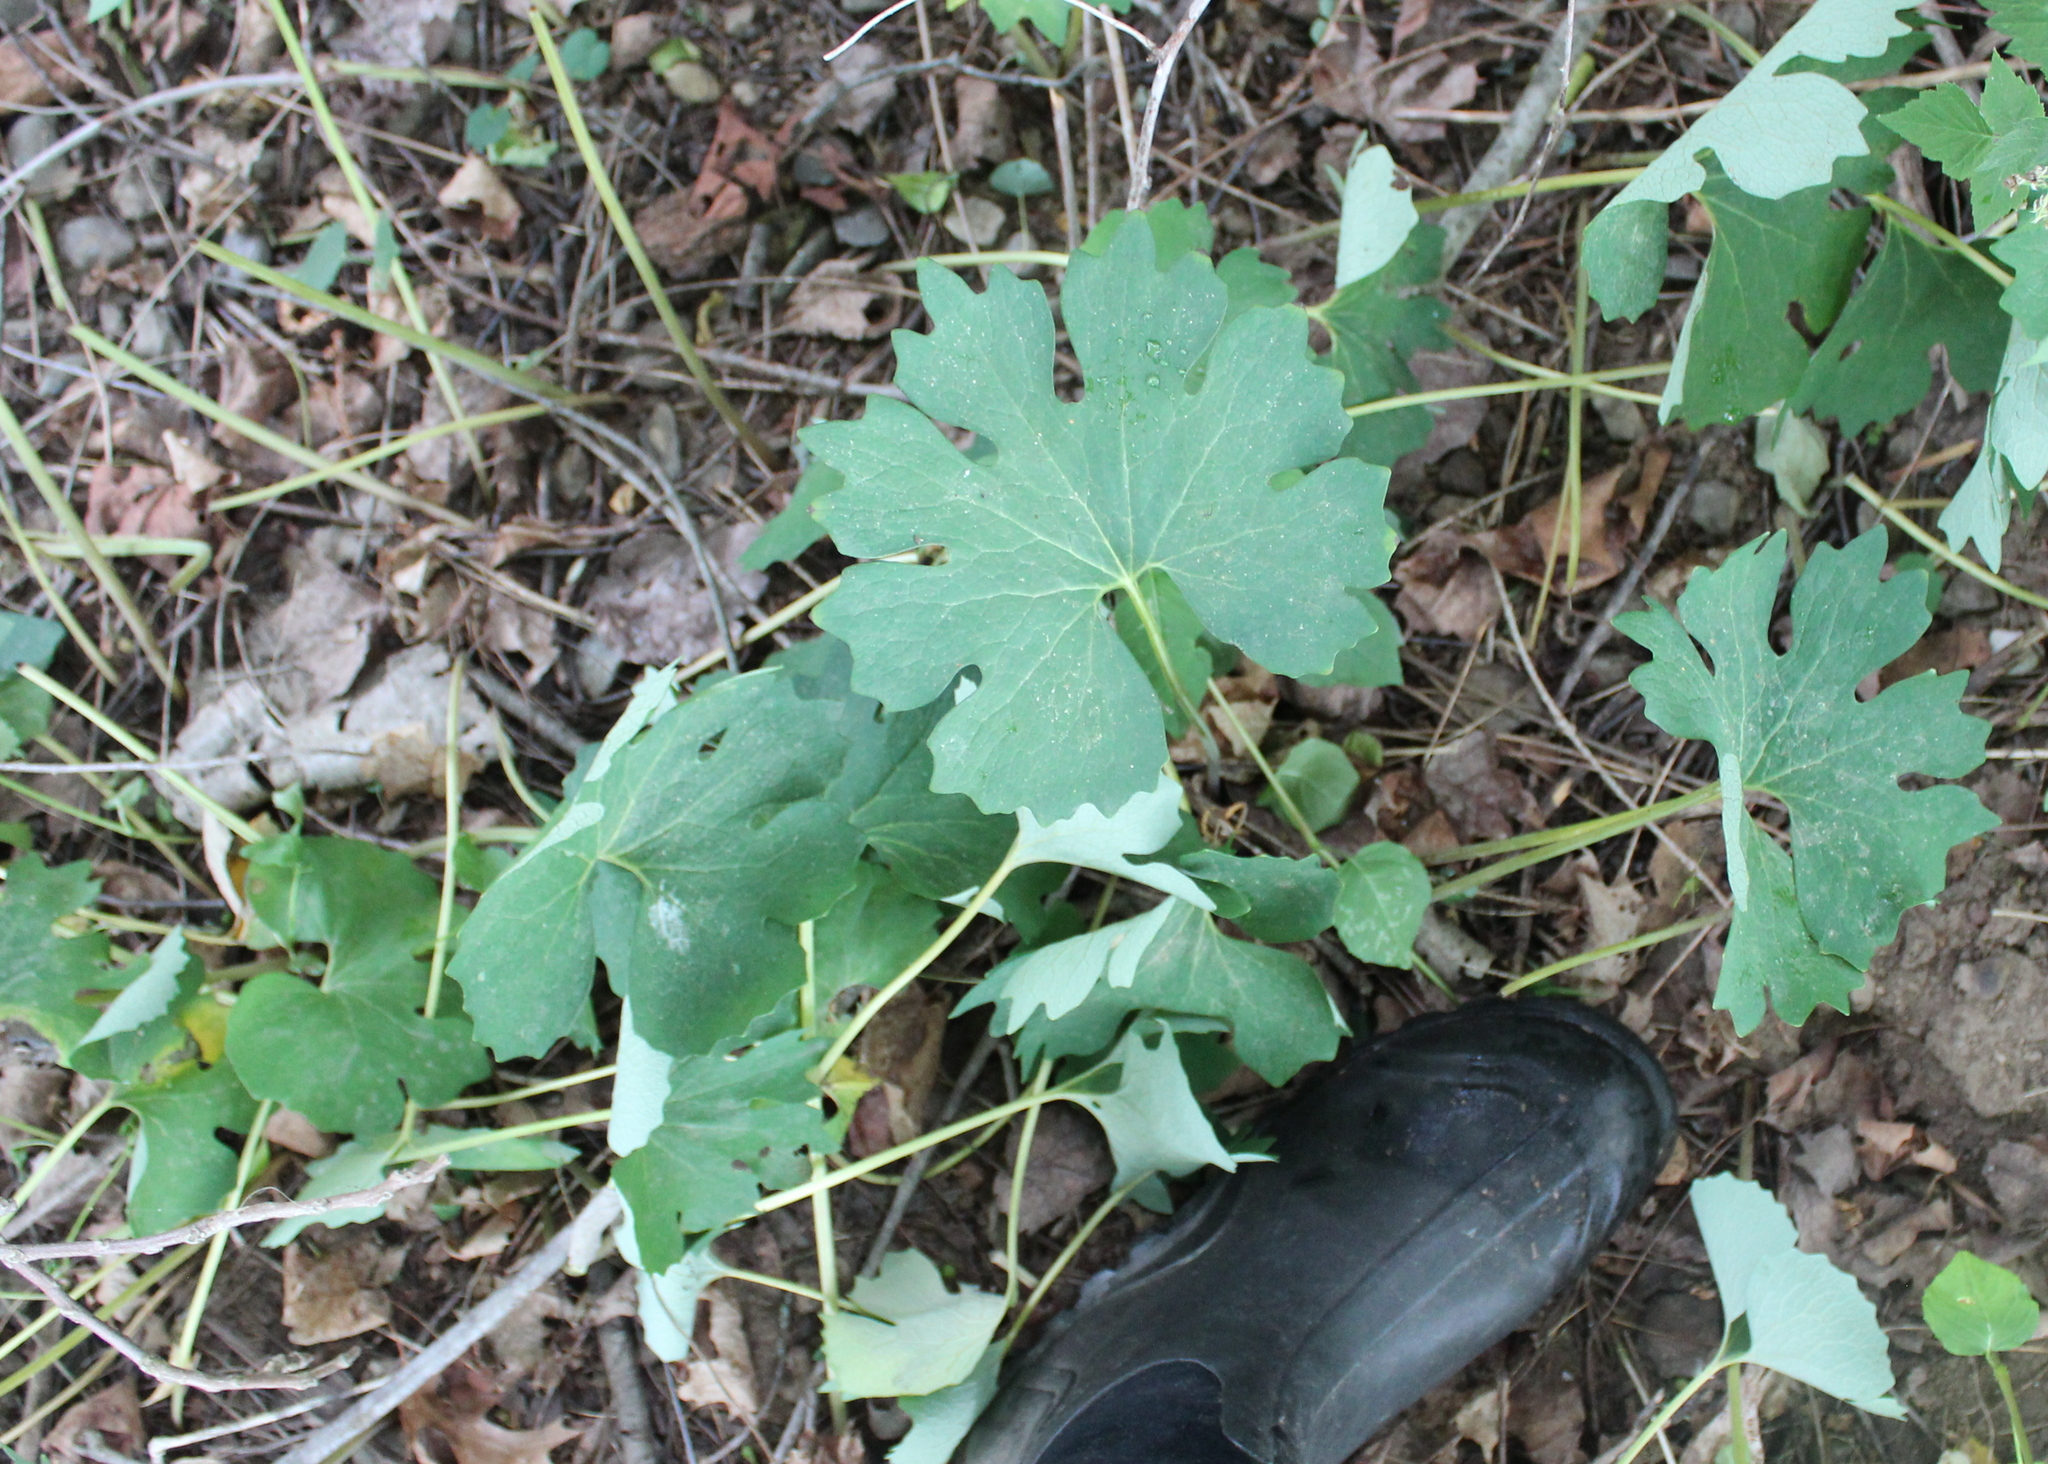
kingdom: Plantae
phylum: Tracheophyta
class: Magnoliopsida
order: Ranunculales
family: Papaveraceae
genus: Sanguinaria
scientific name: Sanguinaria canadensis
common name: Bloodroot
